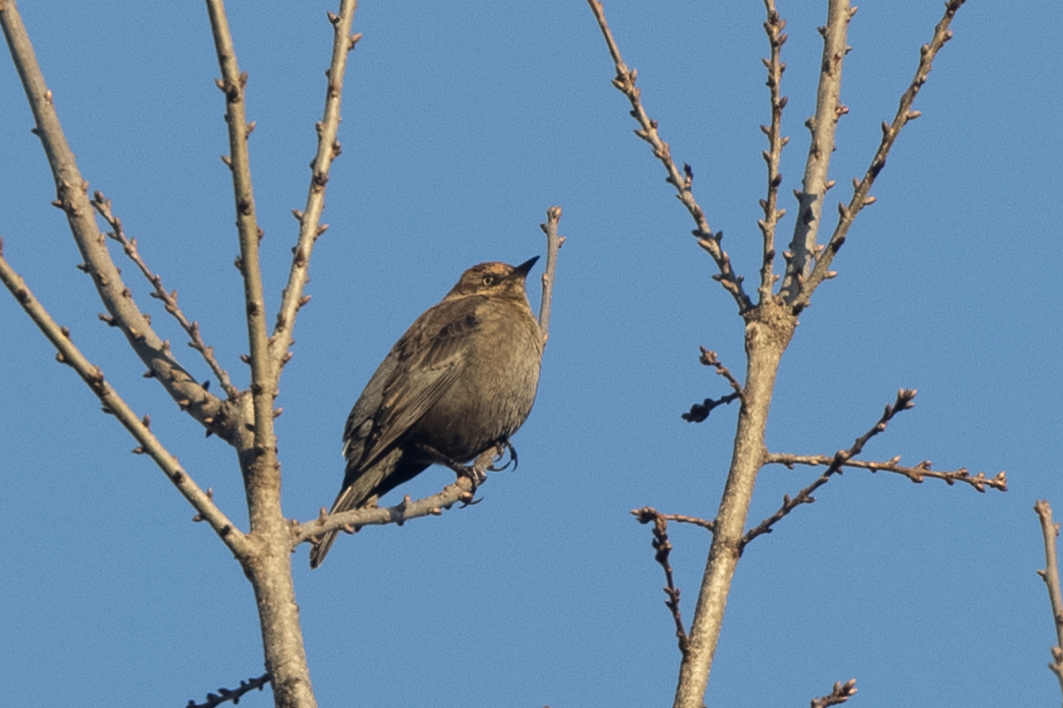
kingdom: Animalia
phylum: Chordata
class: Aves
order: Passeriformes
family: Icteridae
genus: Euphagus
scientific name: Euphagus carolinus
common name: Rusty blackbird
